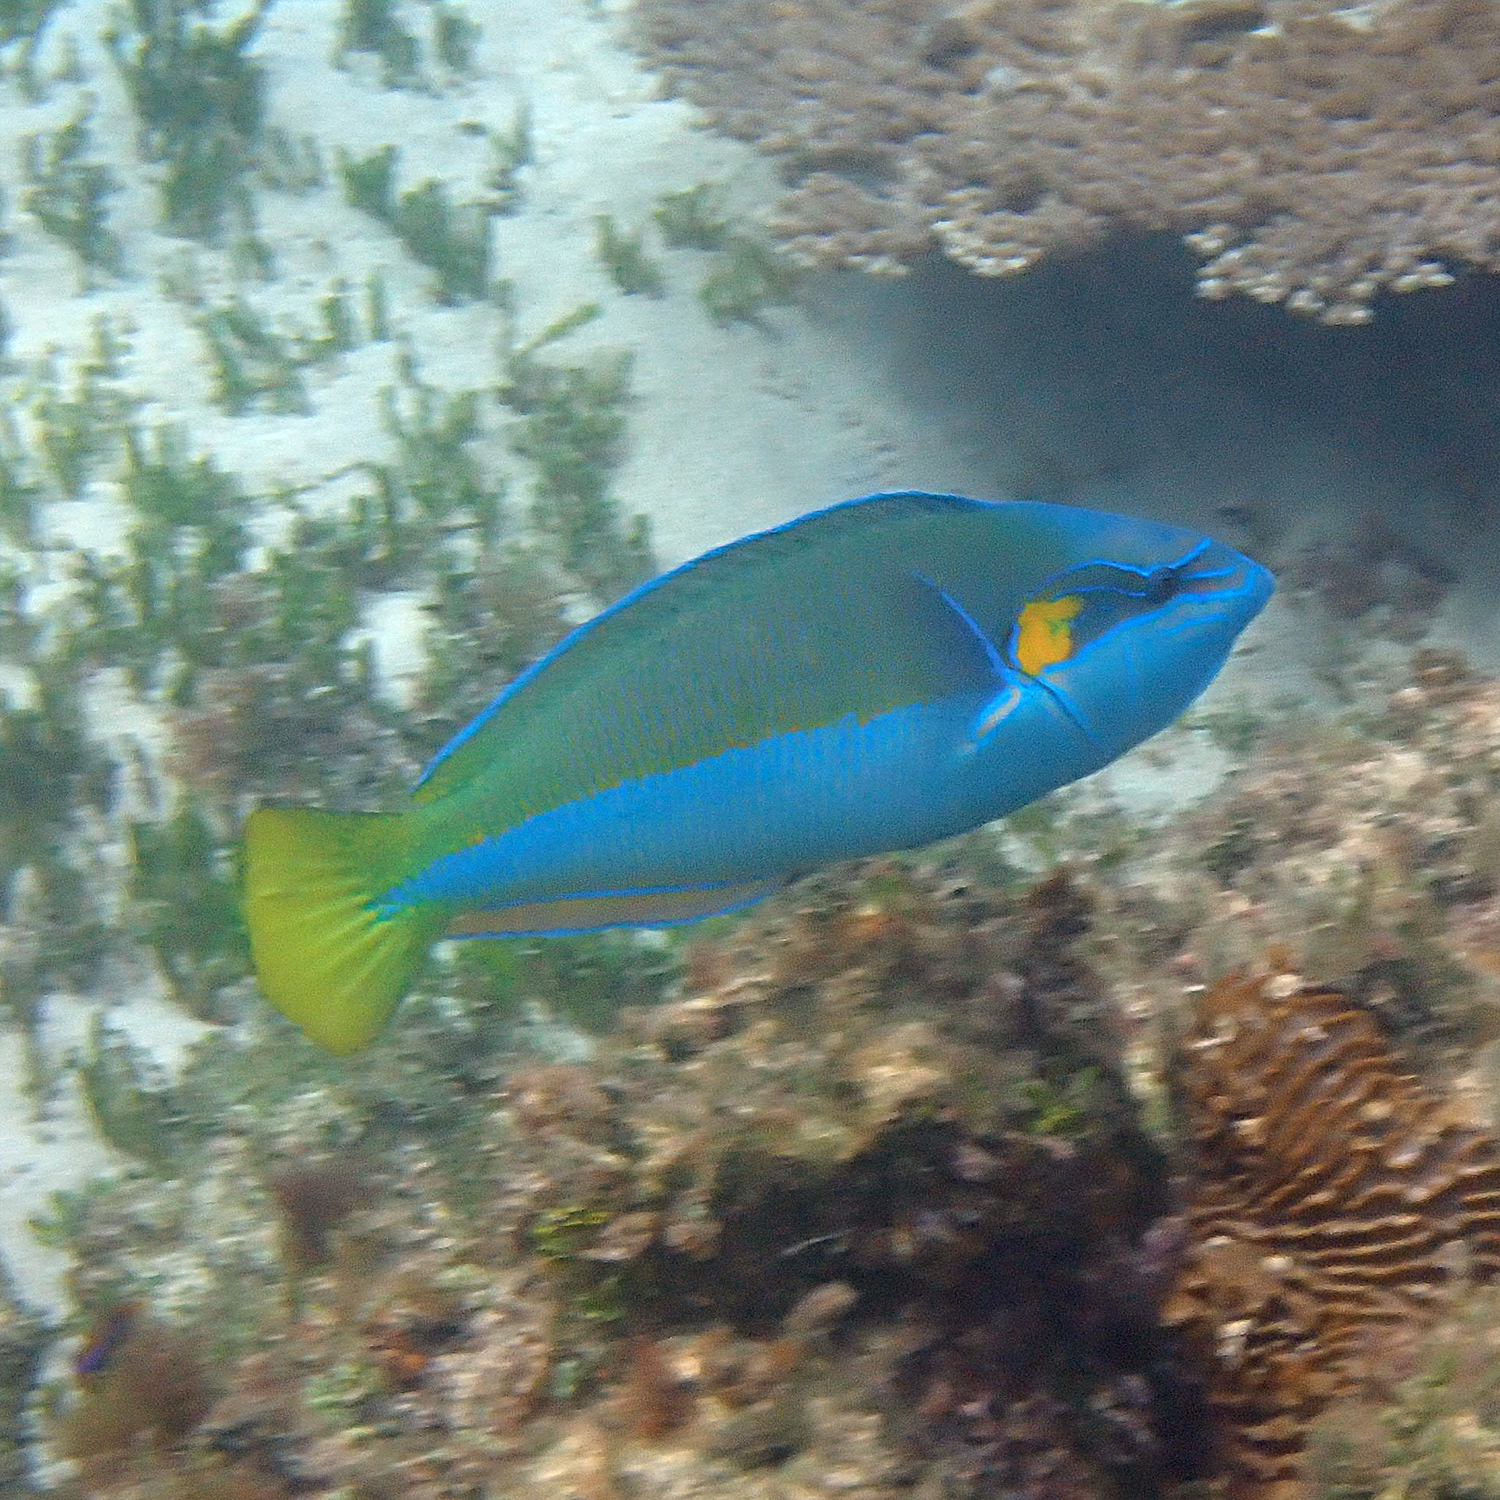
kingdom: Animalia
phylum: Chordata
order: Perciformes
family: Labridae
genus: Anampses
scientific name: Anampses elegans
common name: Elegant wrasse
